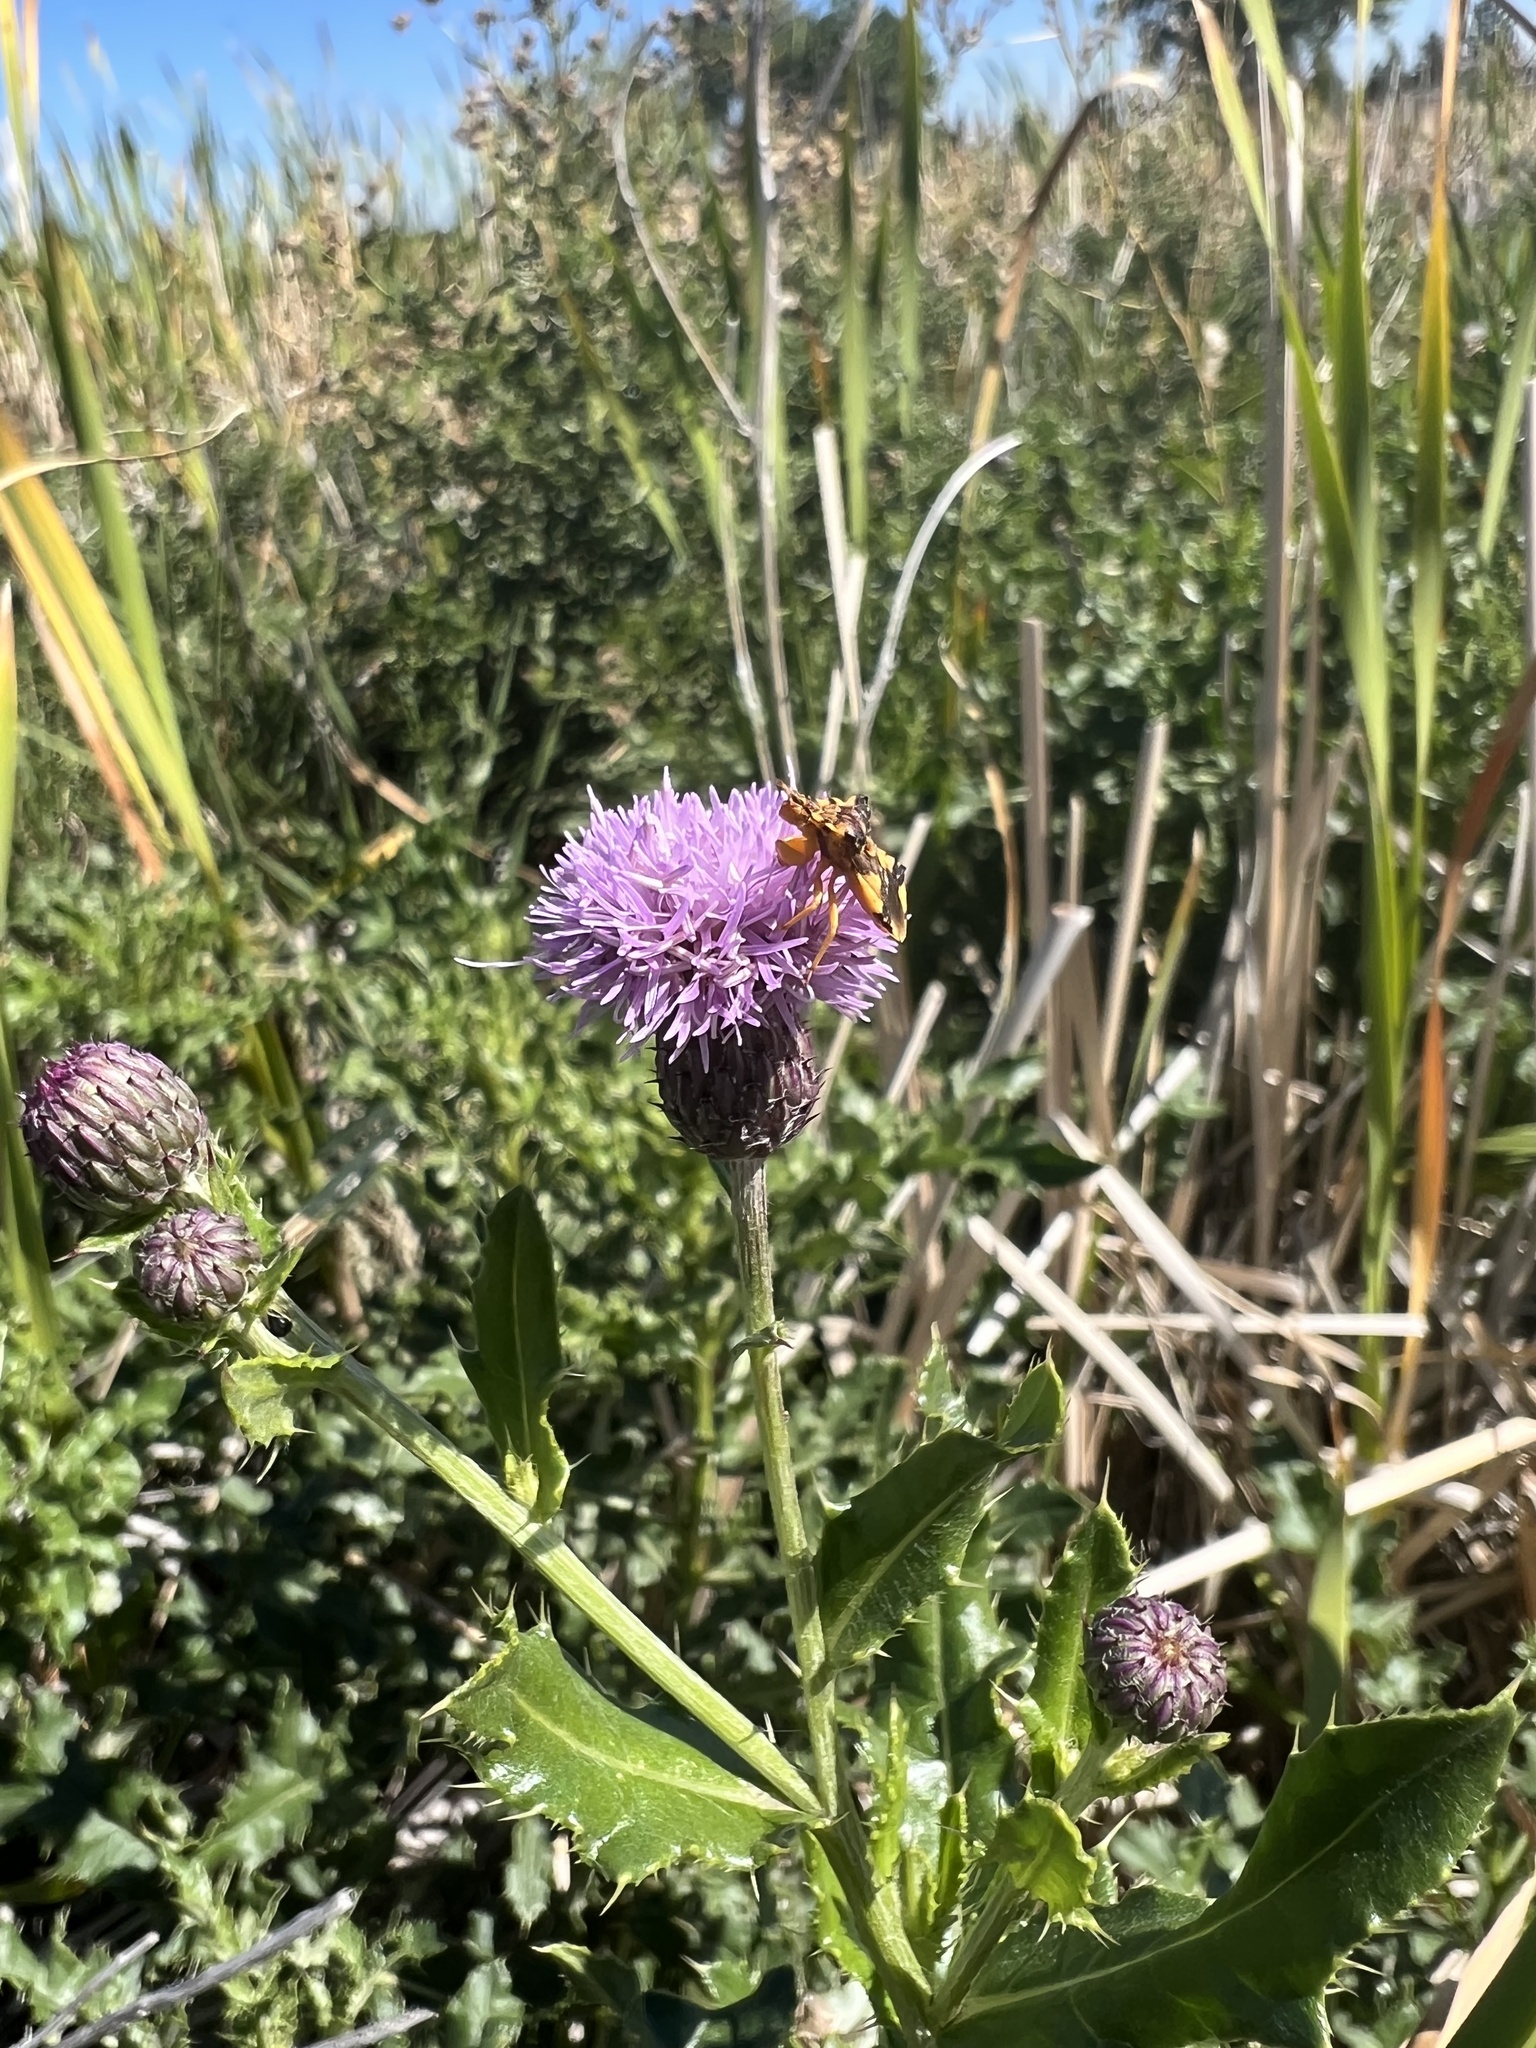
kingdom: Animalia
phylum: Arthropoda
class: Insecta
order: Hemiptera
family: Reduviidae
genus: Phymata
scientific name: Phymata americana
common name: Jagged ambush bug
